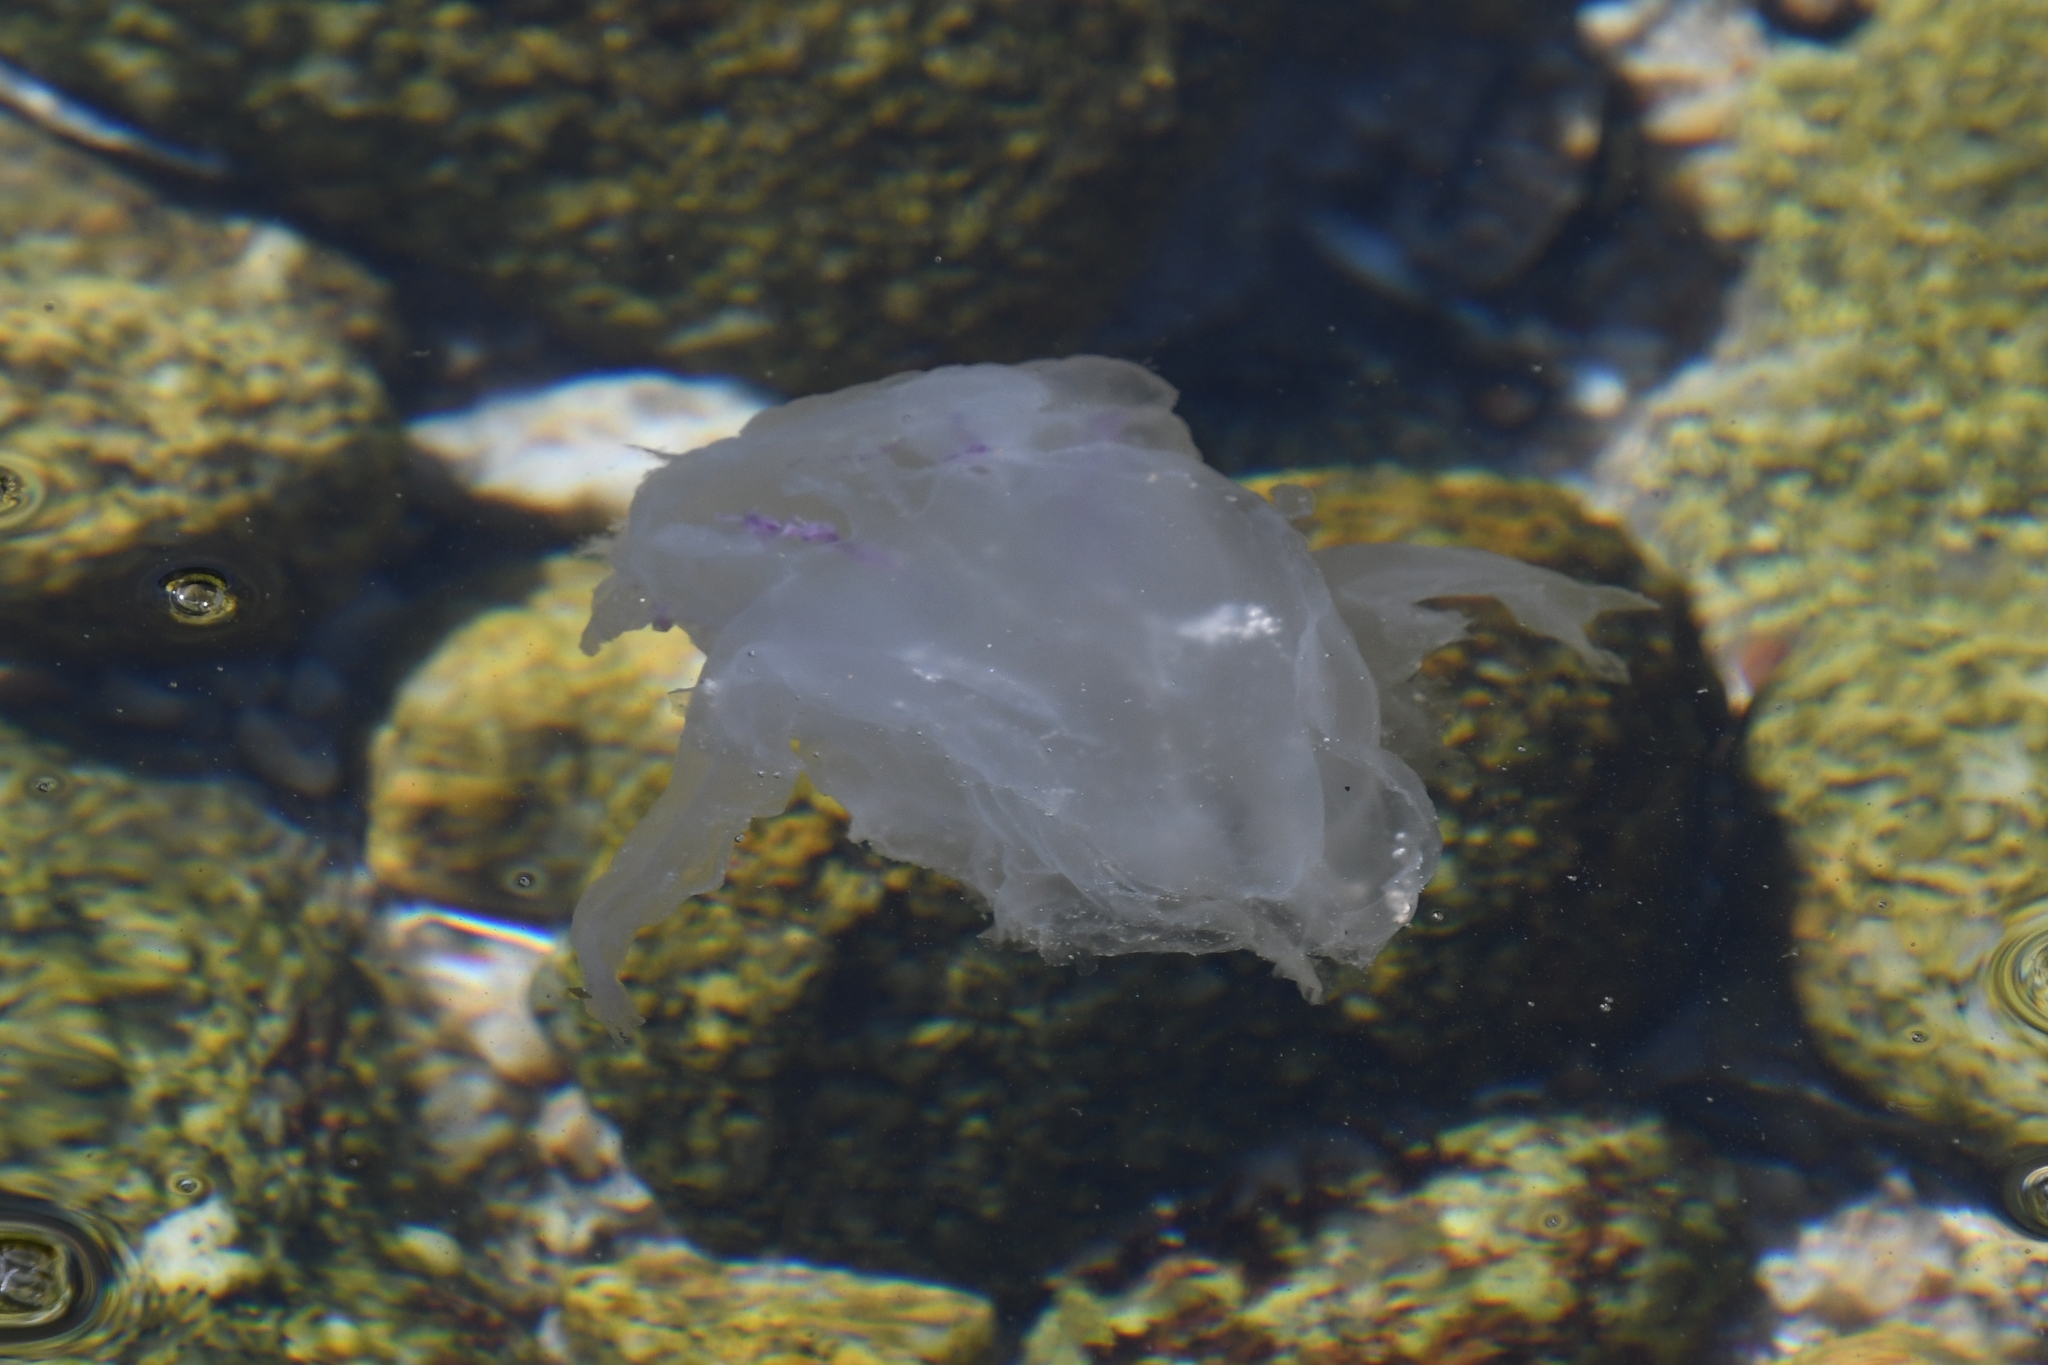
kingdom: Animalia
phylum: Cnidaria
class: Scyphozoa
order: Semaeostomeae
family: Ulmaridae
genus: Aurelia
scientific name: Aurelia labiata
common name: Pacific moon jelly
